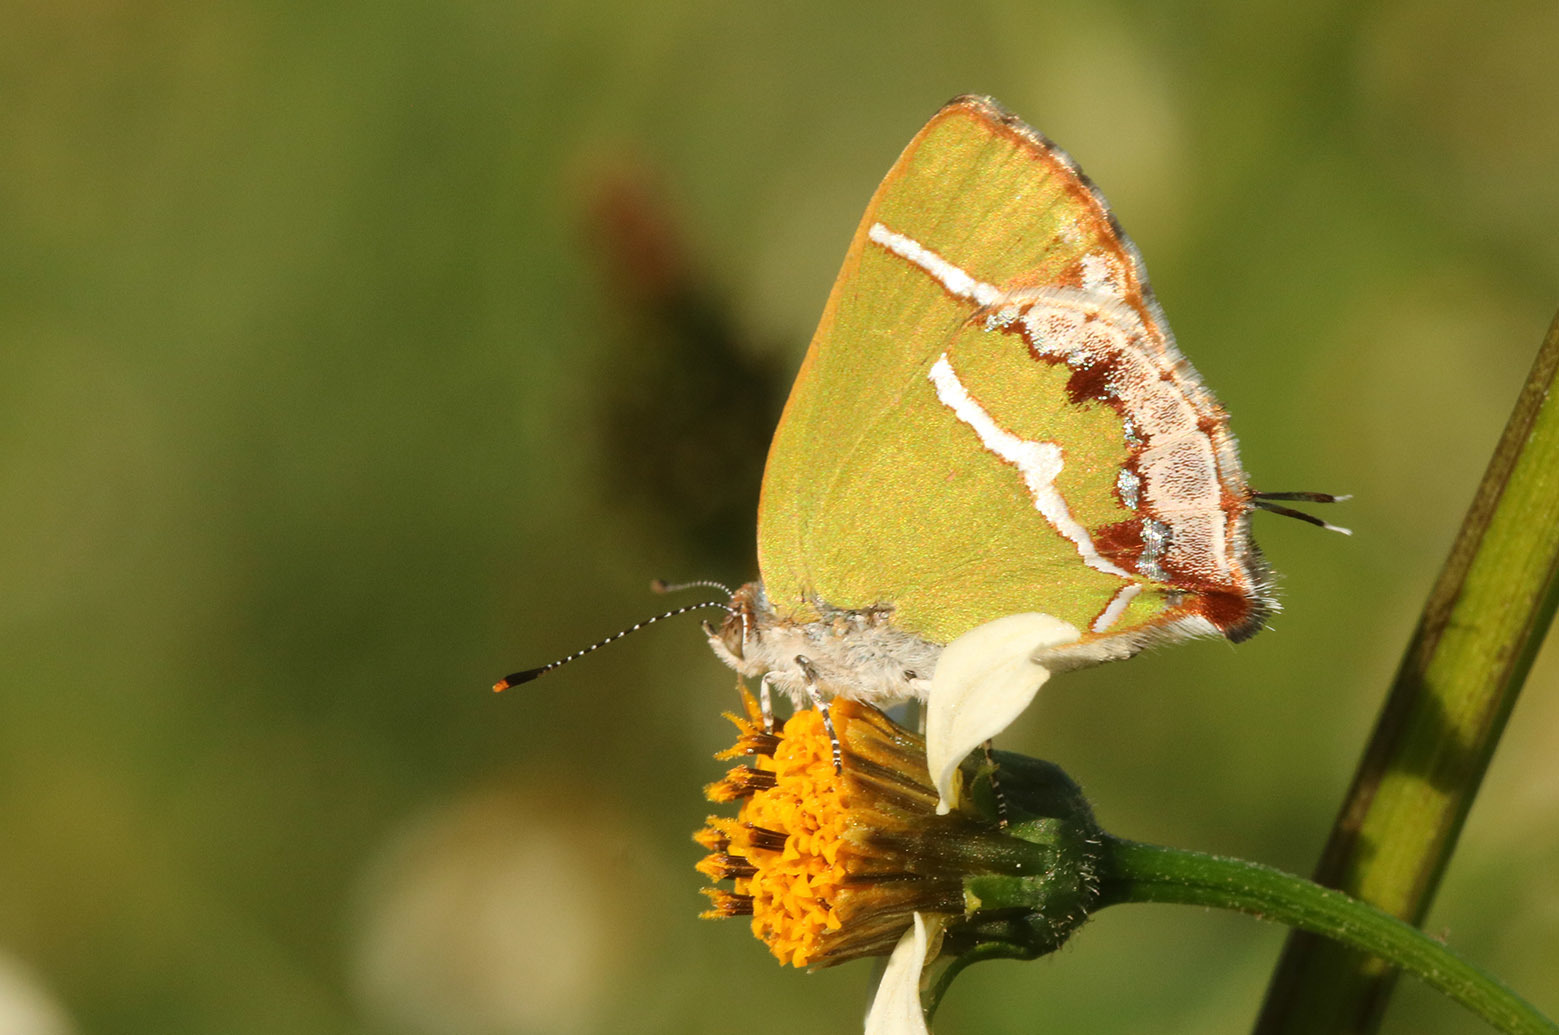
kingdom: Animalia
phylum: Arthropoda
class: Insecta
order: Lepidoptera
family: Lycaenidae
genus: Chlorostrymon
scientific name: Chlorostrymon simaethis
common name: Silver-banded hairstreak
